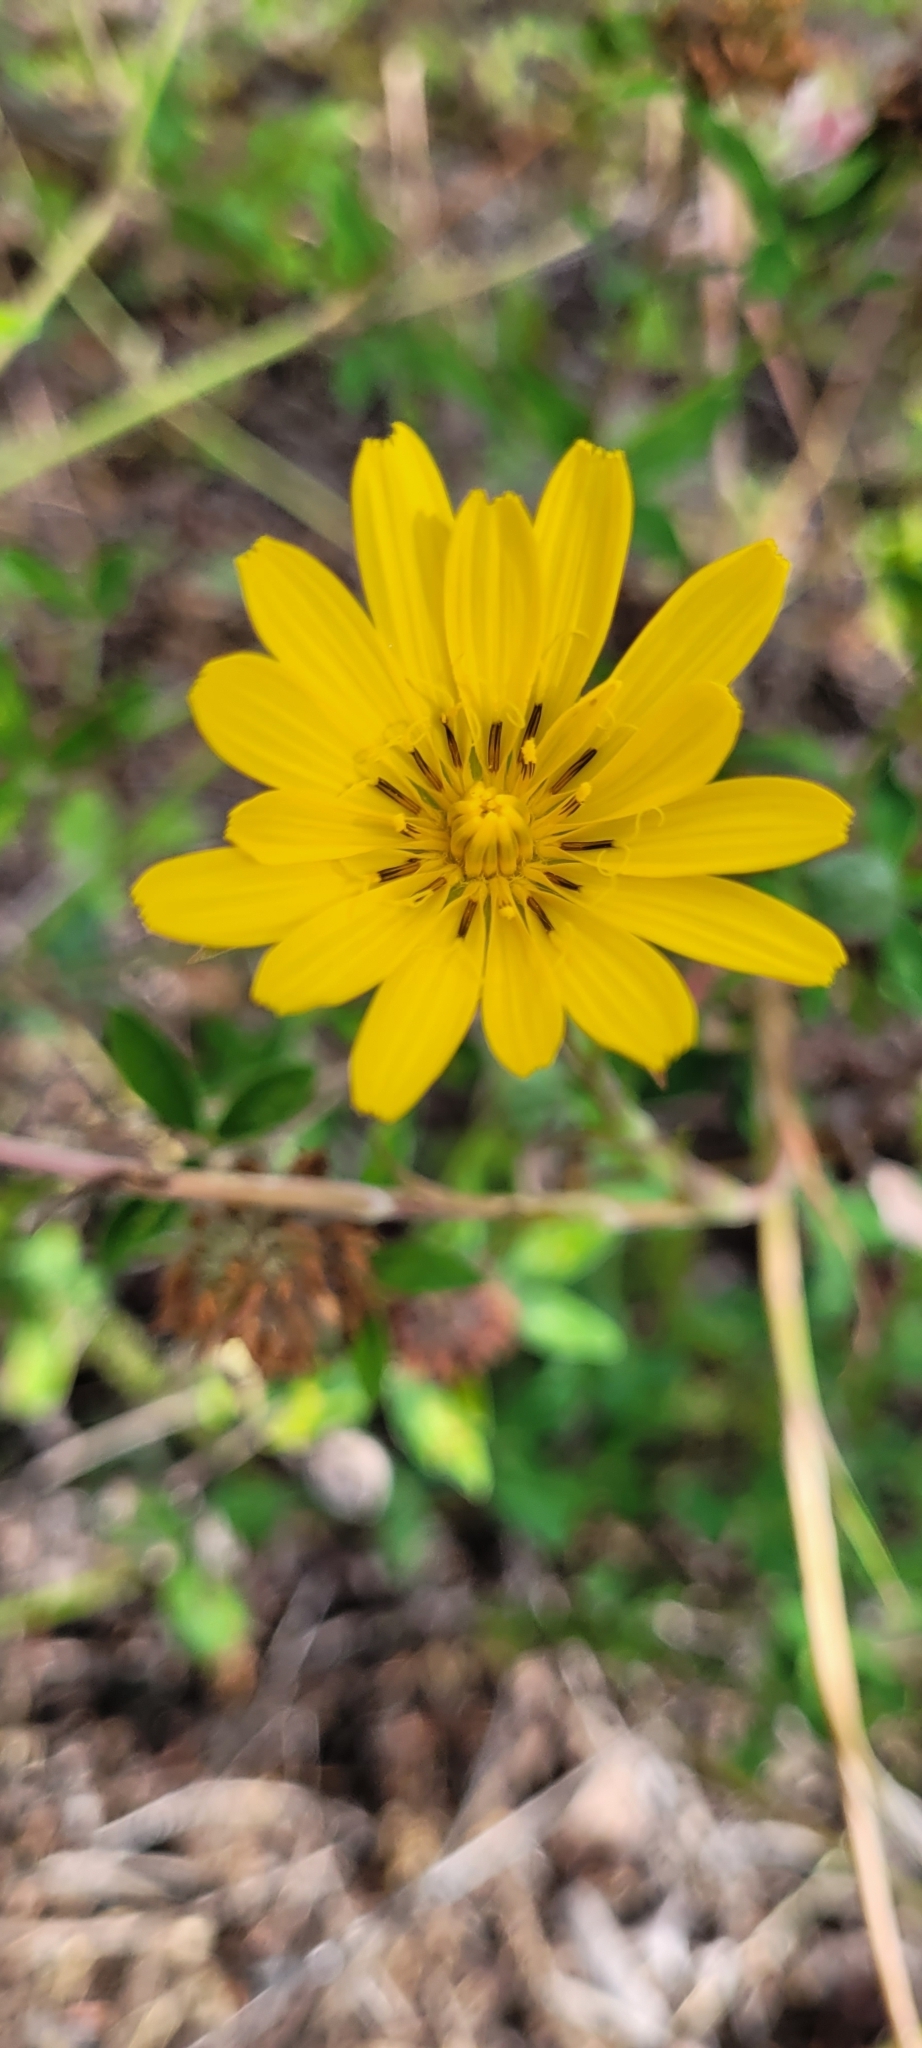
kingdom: Plantae
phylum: Tracheophyta
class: Magnoliopsida
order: Asterales
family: Asteraceae
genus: Tragopogon
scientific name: Tragopogon pratensis
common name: Goat's-beard
